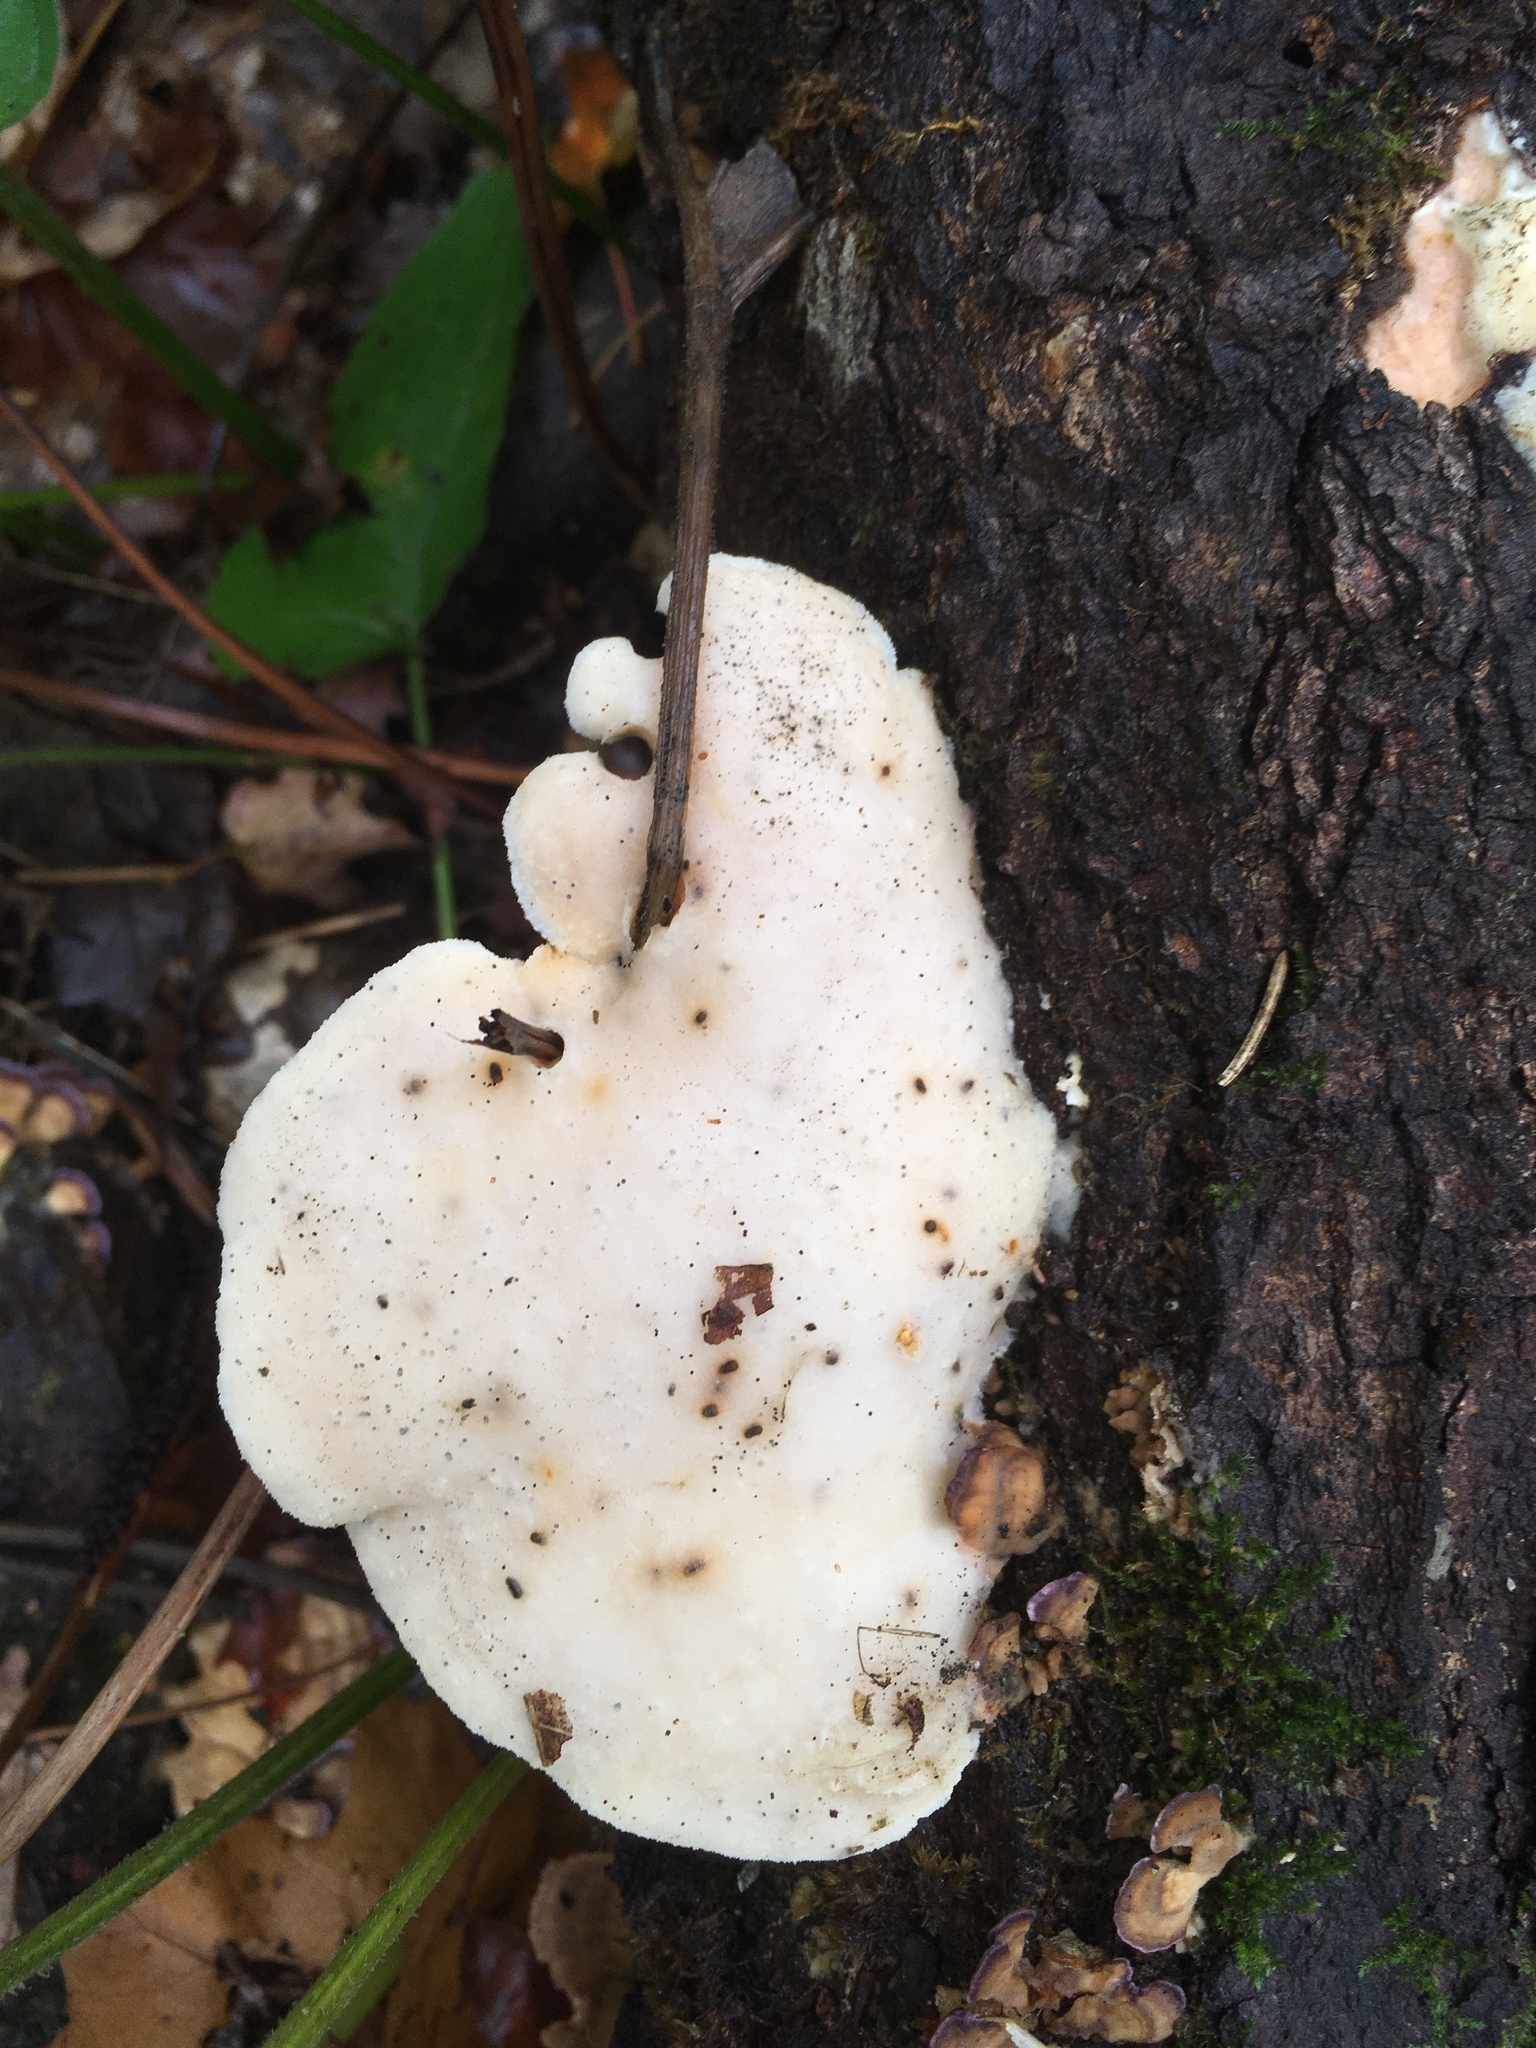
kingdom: Fungi
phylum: Basidiomycota
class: Agaricomycetes
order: Polyporales
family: Incrustoporiaceae
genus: Tyromyces
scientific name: Tyromyces chioneus
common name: White cheese polypore
